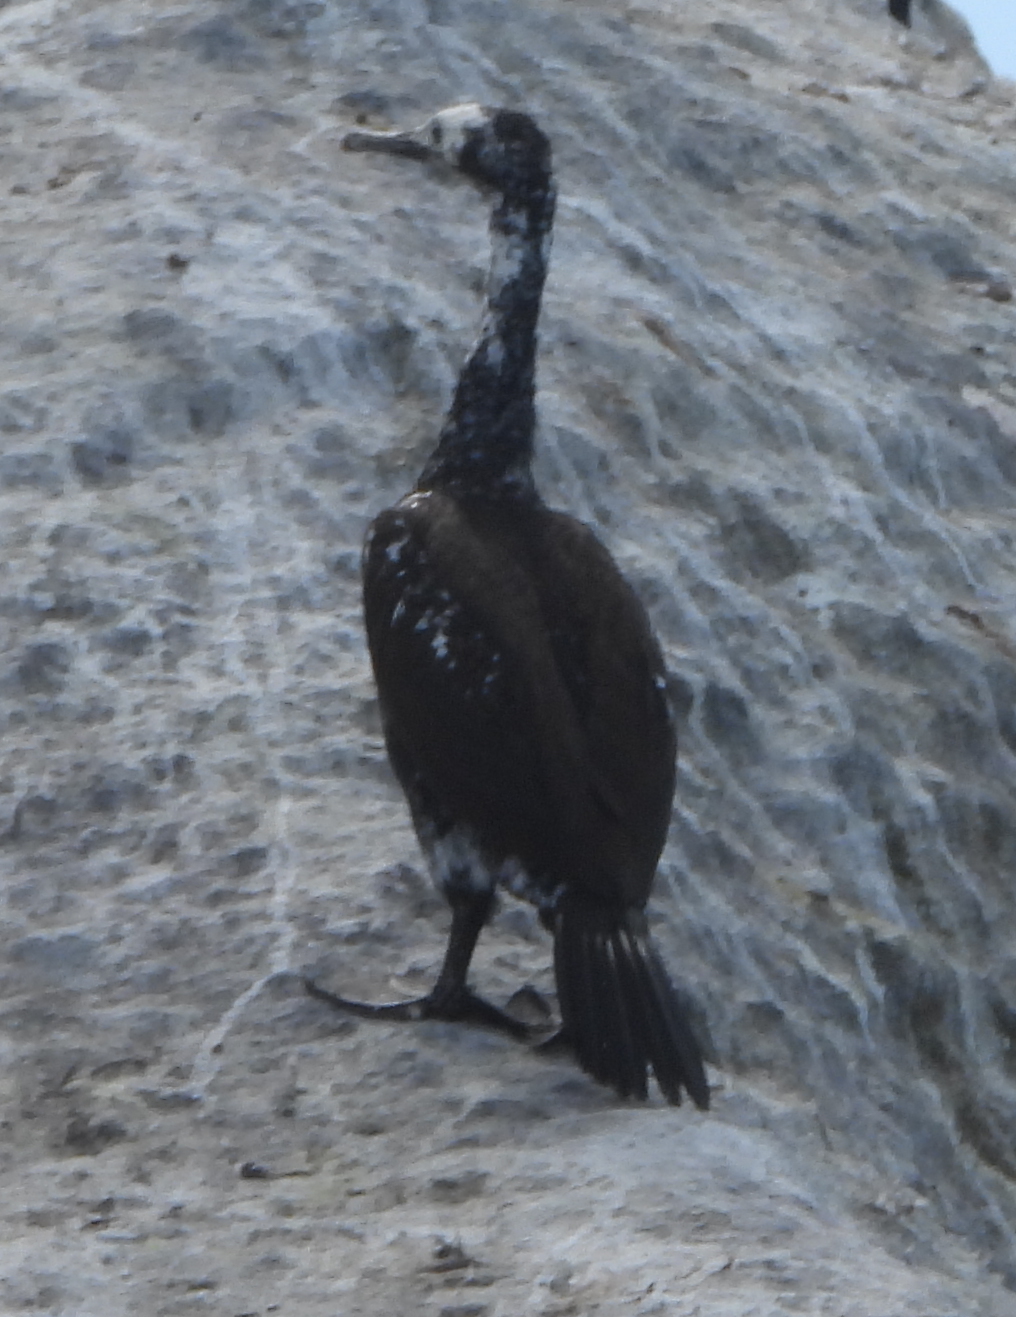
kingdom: Animalia
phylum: Chordata
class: Aves
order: Suliformes
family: Phalacrocoracidae
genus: Phalacrocorax
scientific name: Phalacrocorax neglectus
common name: Bank cormorant
